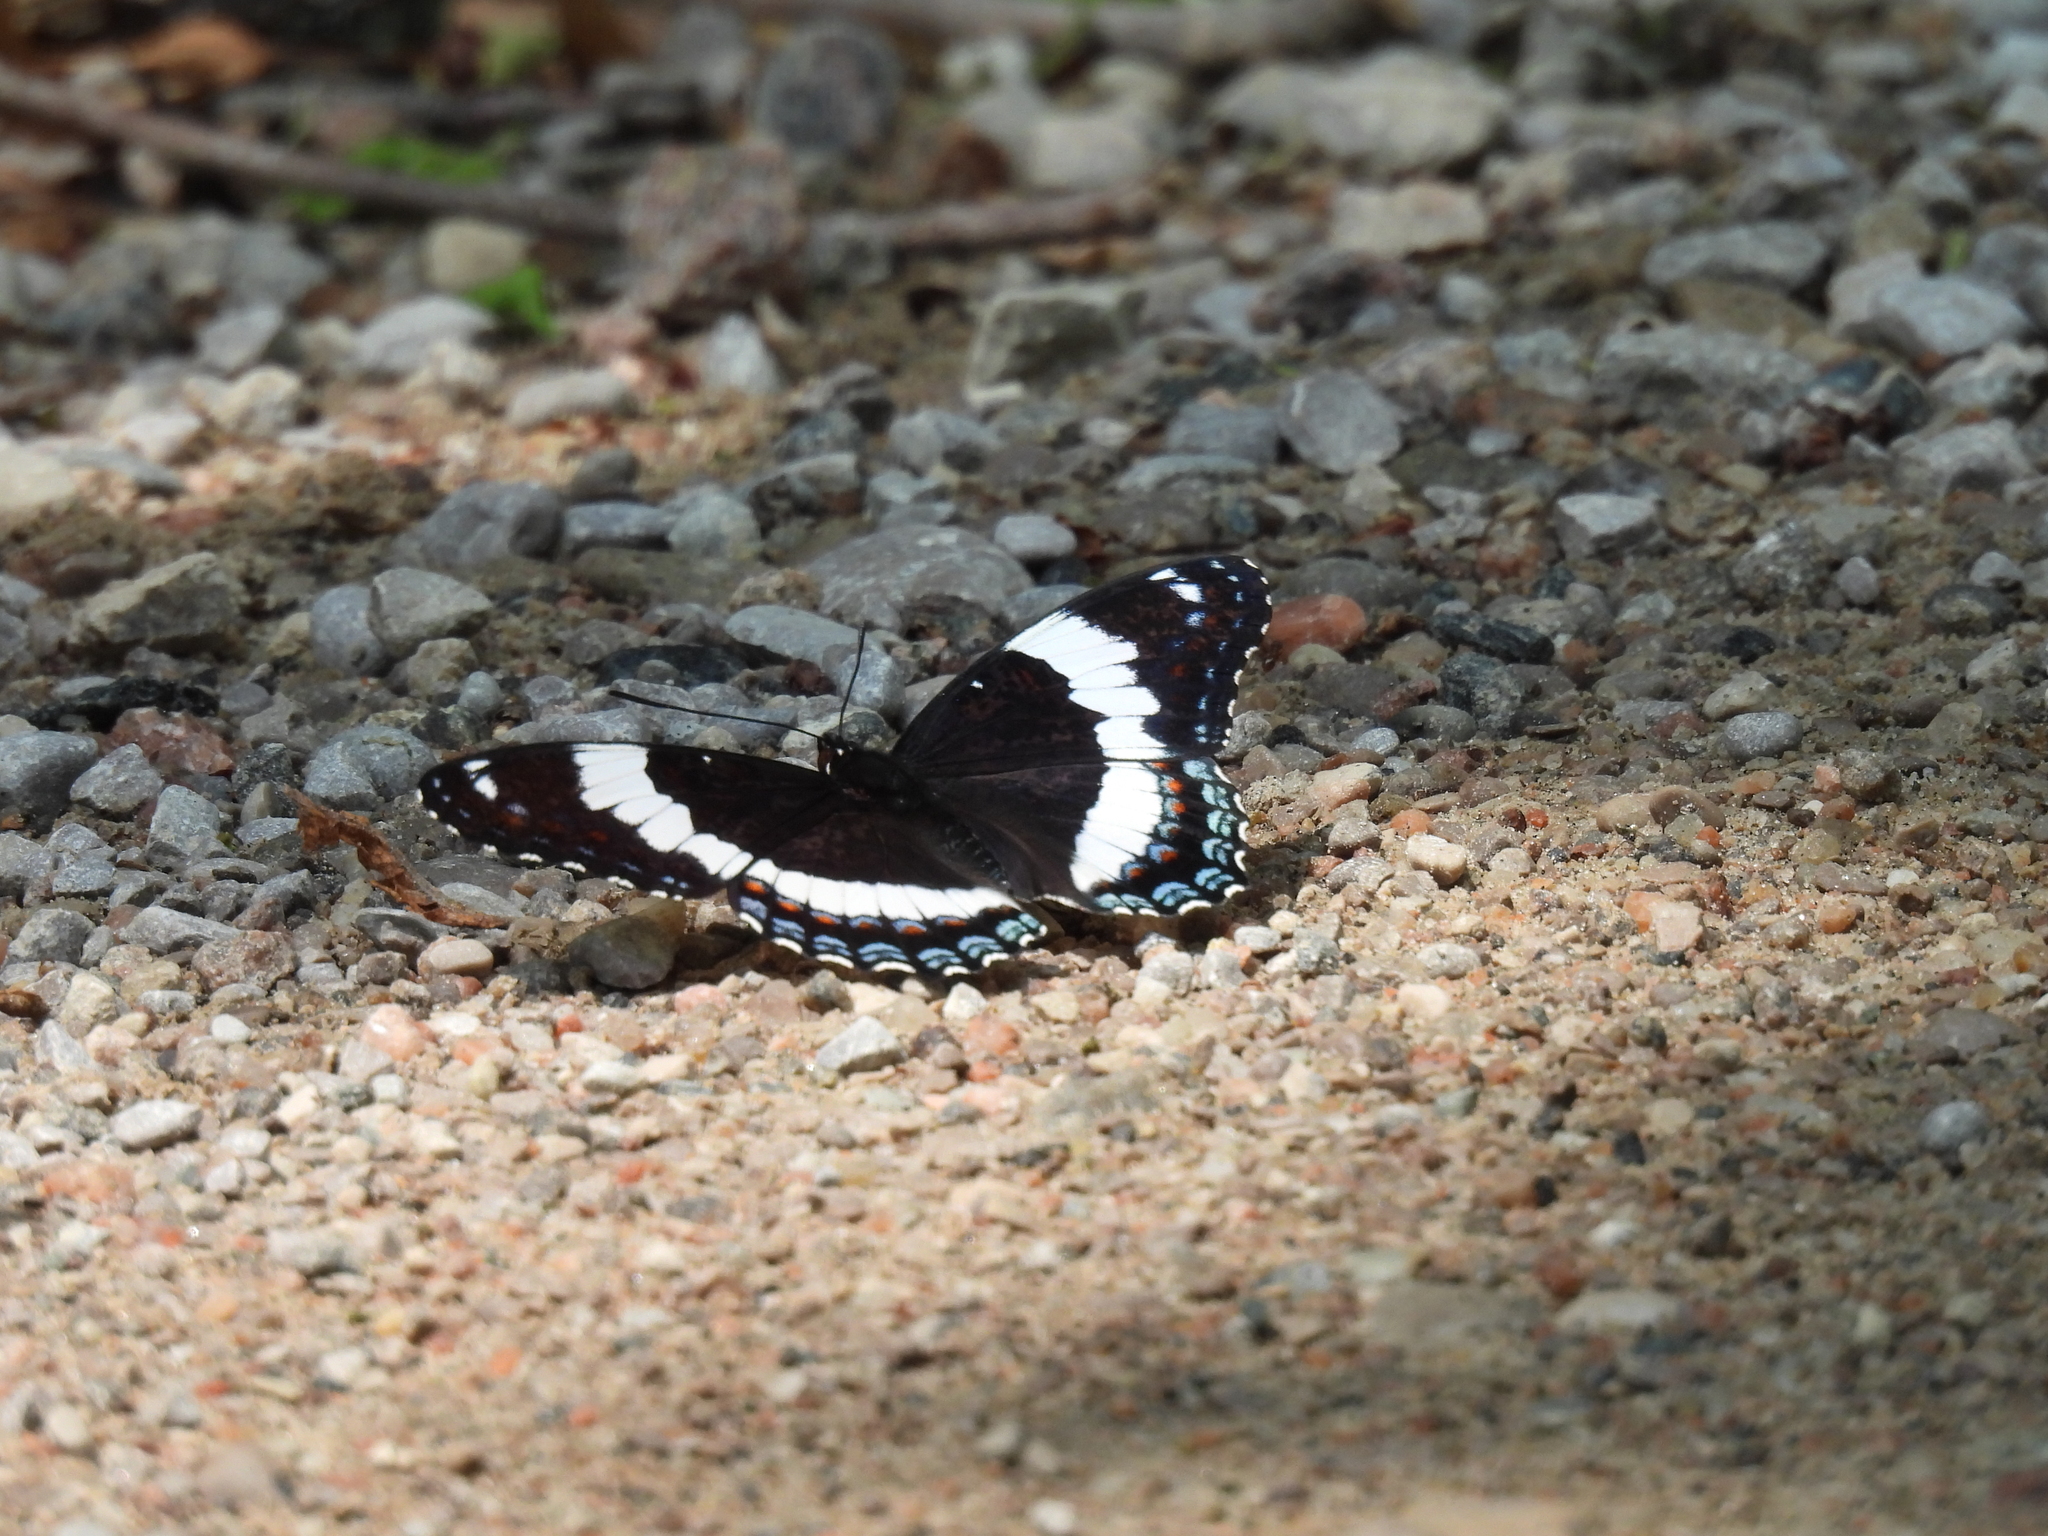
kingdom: Animalia
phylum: Arthropoda
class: Insecta
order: Lepidoptera
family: Nymphalidae
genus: Limenitis
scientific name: Limenitis arthemis
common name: Red-spotted admiral
